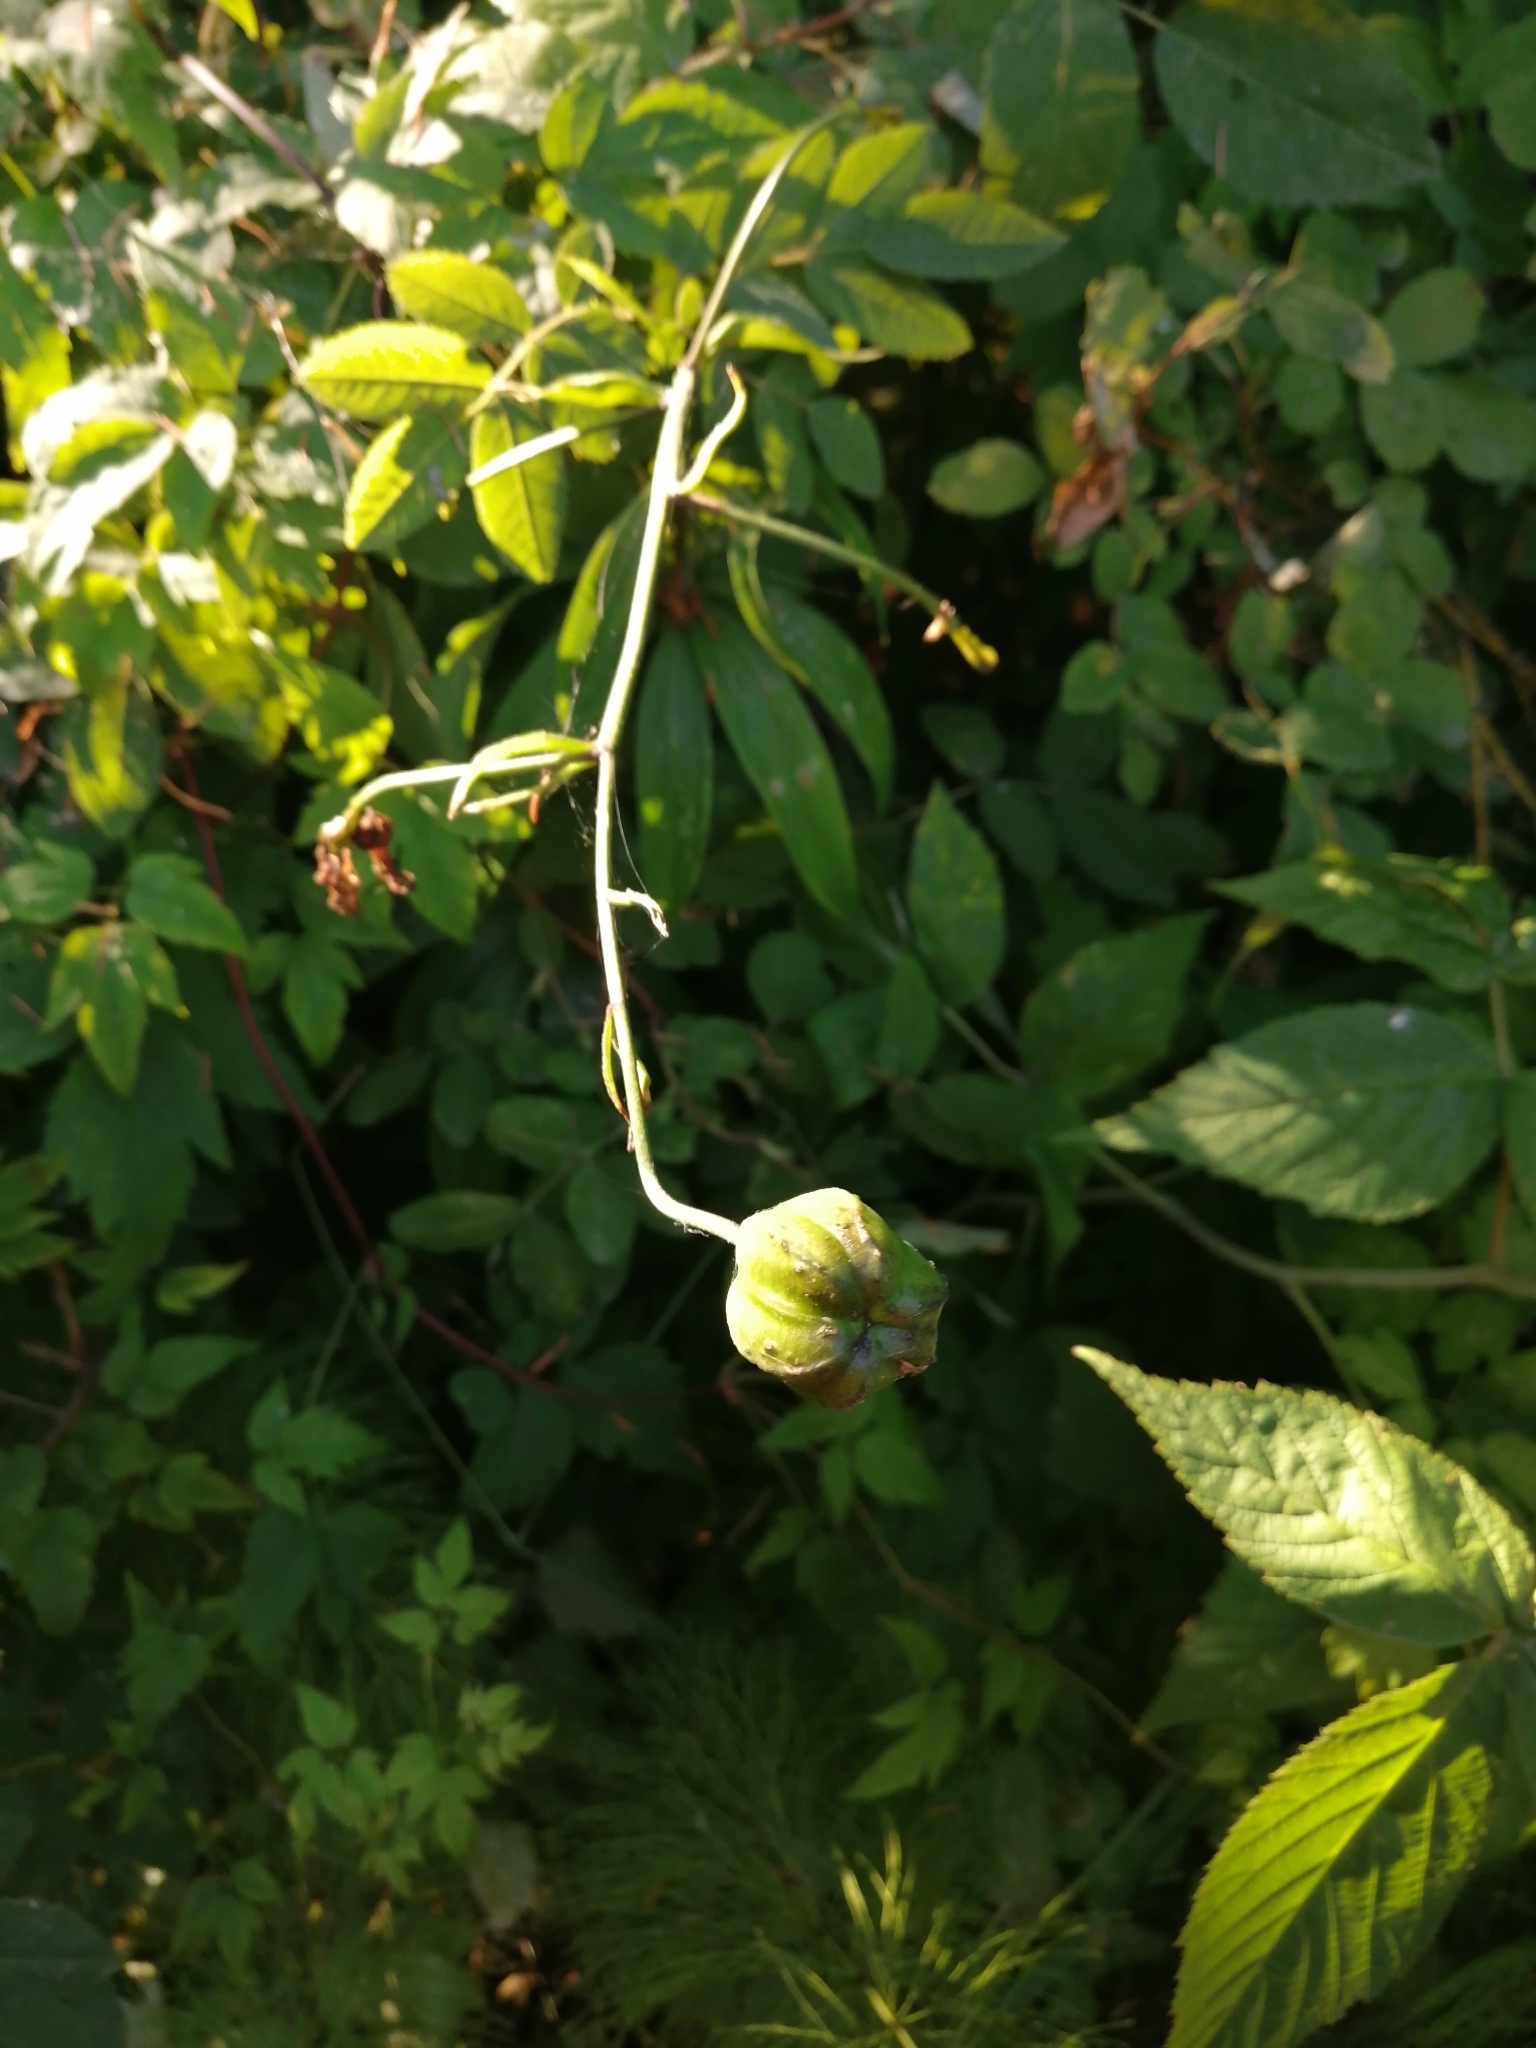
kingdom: Plantae
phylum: Tracheophyta
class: Liliopsida
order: Liliales
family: Liliaceae
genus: Lilium
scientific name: Lilium martagon
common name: Martagon lily
